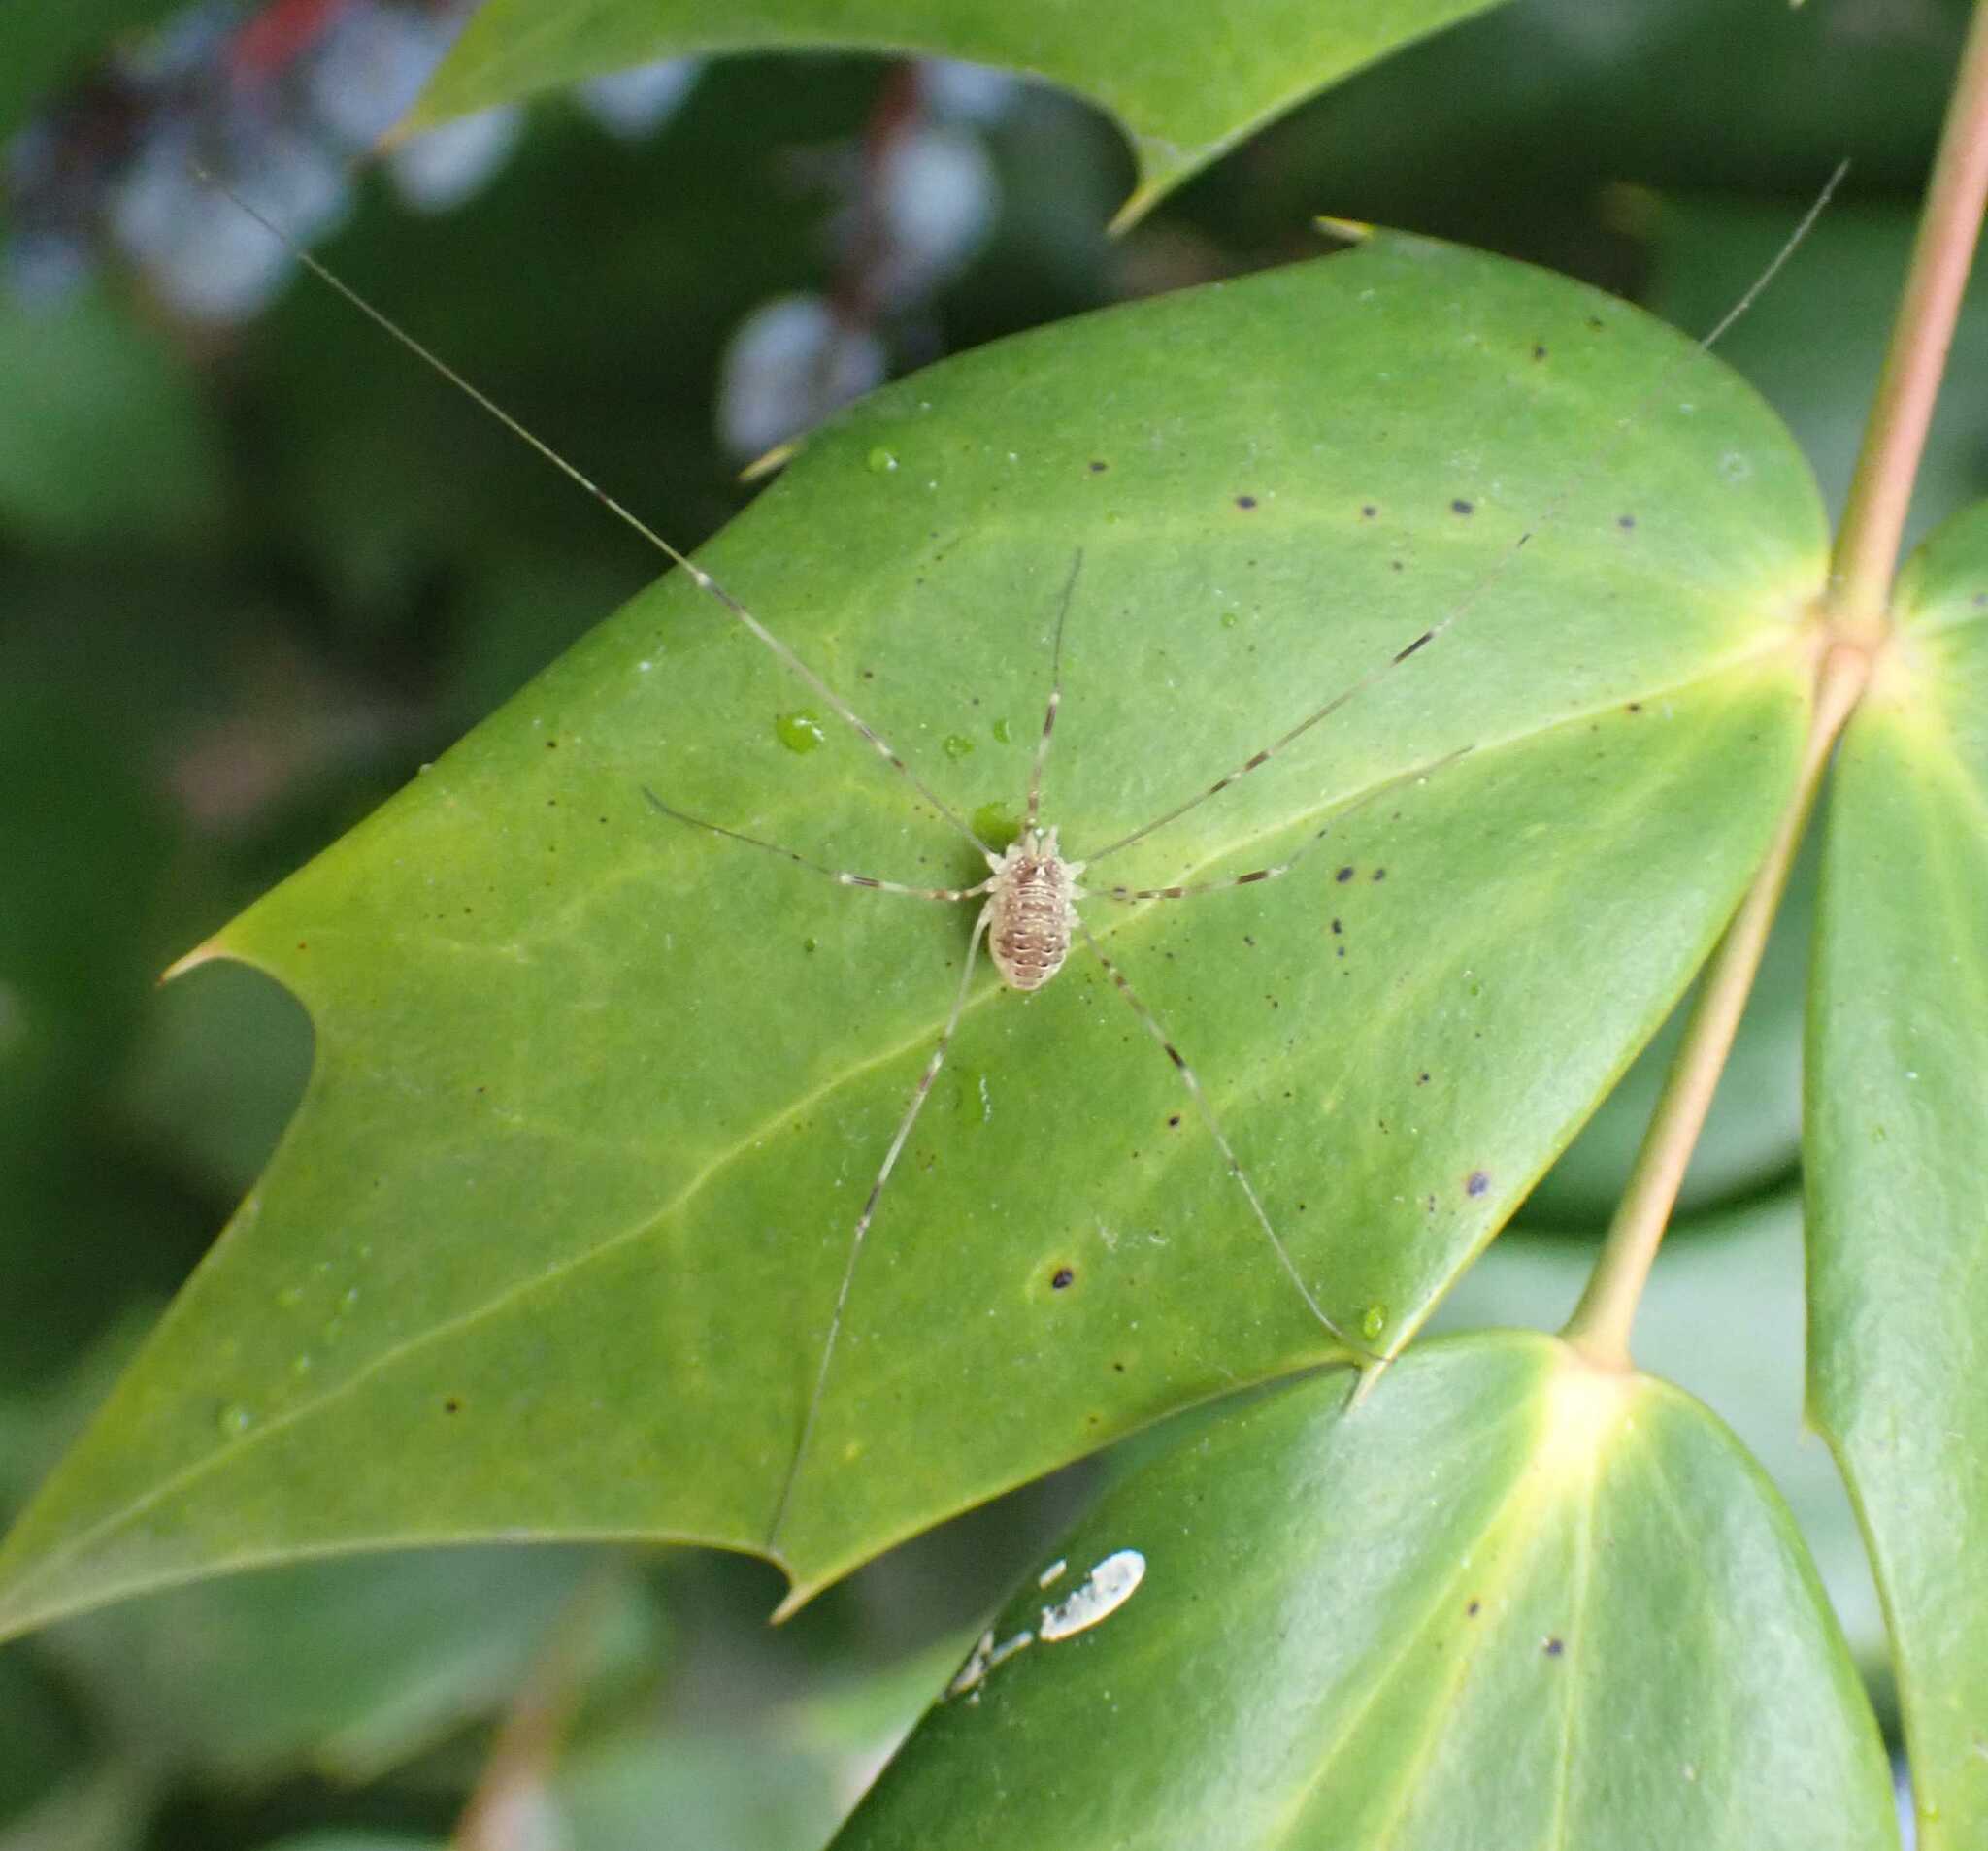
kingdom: Animalia
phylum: Arthropoda
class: Arachnida
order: Opiliones
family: Phalangiidae
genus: Opilio
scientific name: Opilio canestrinii
